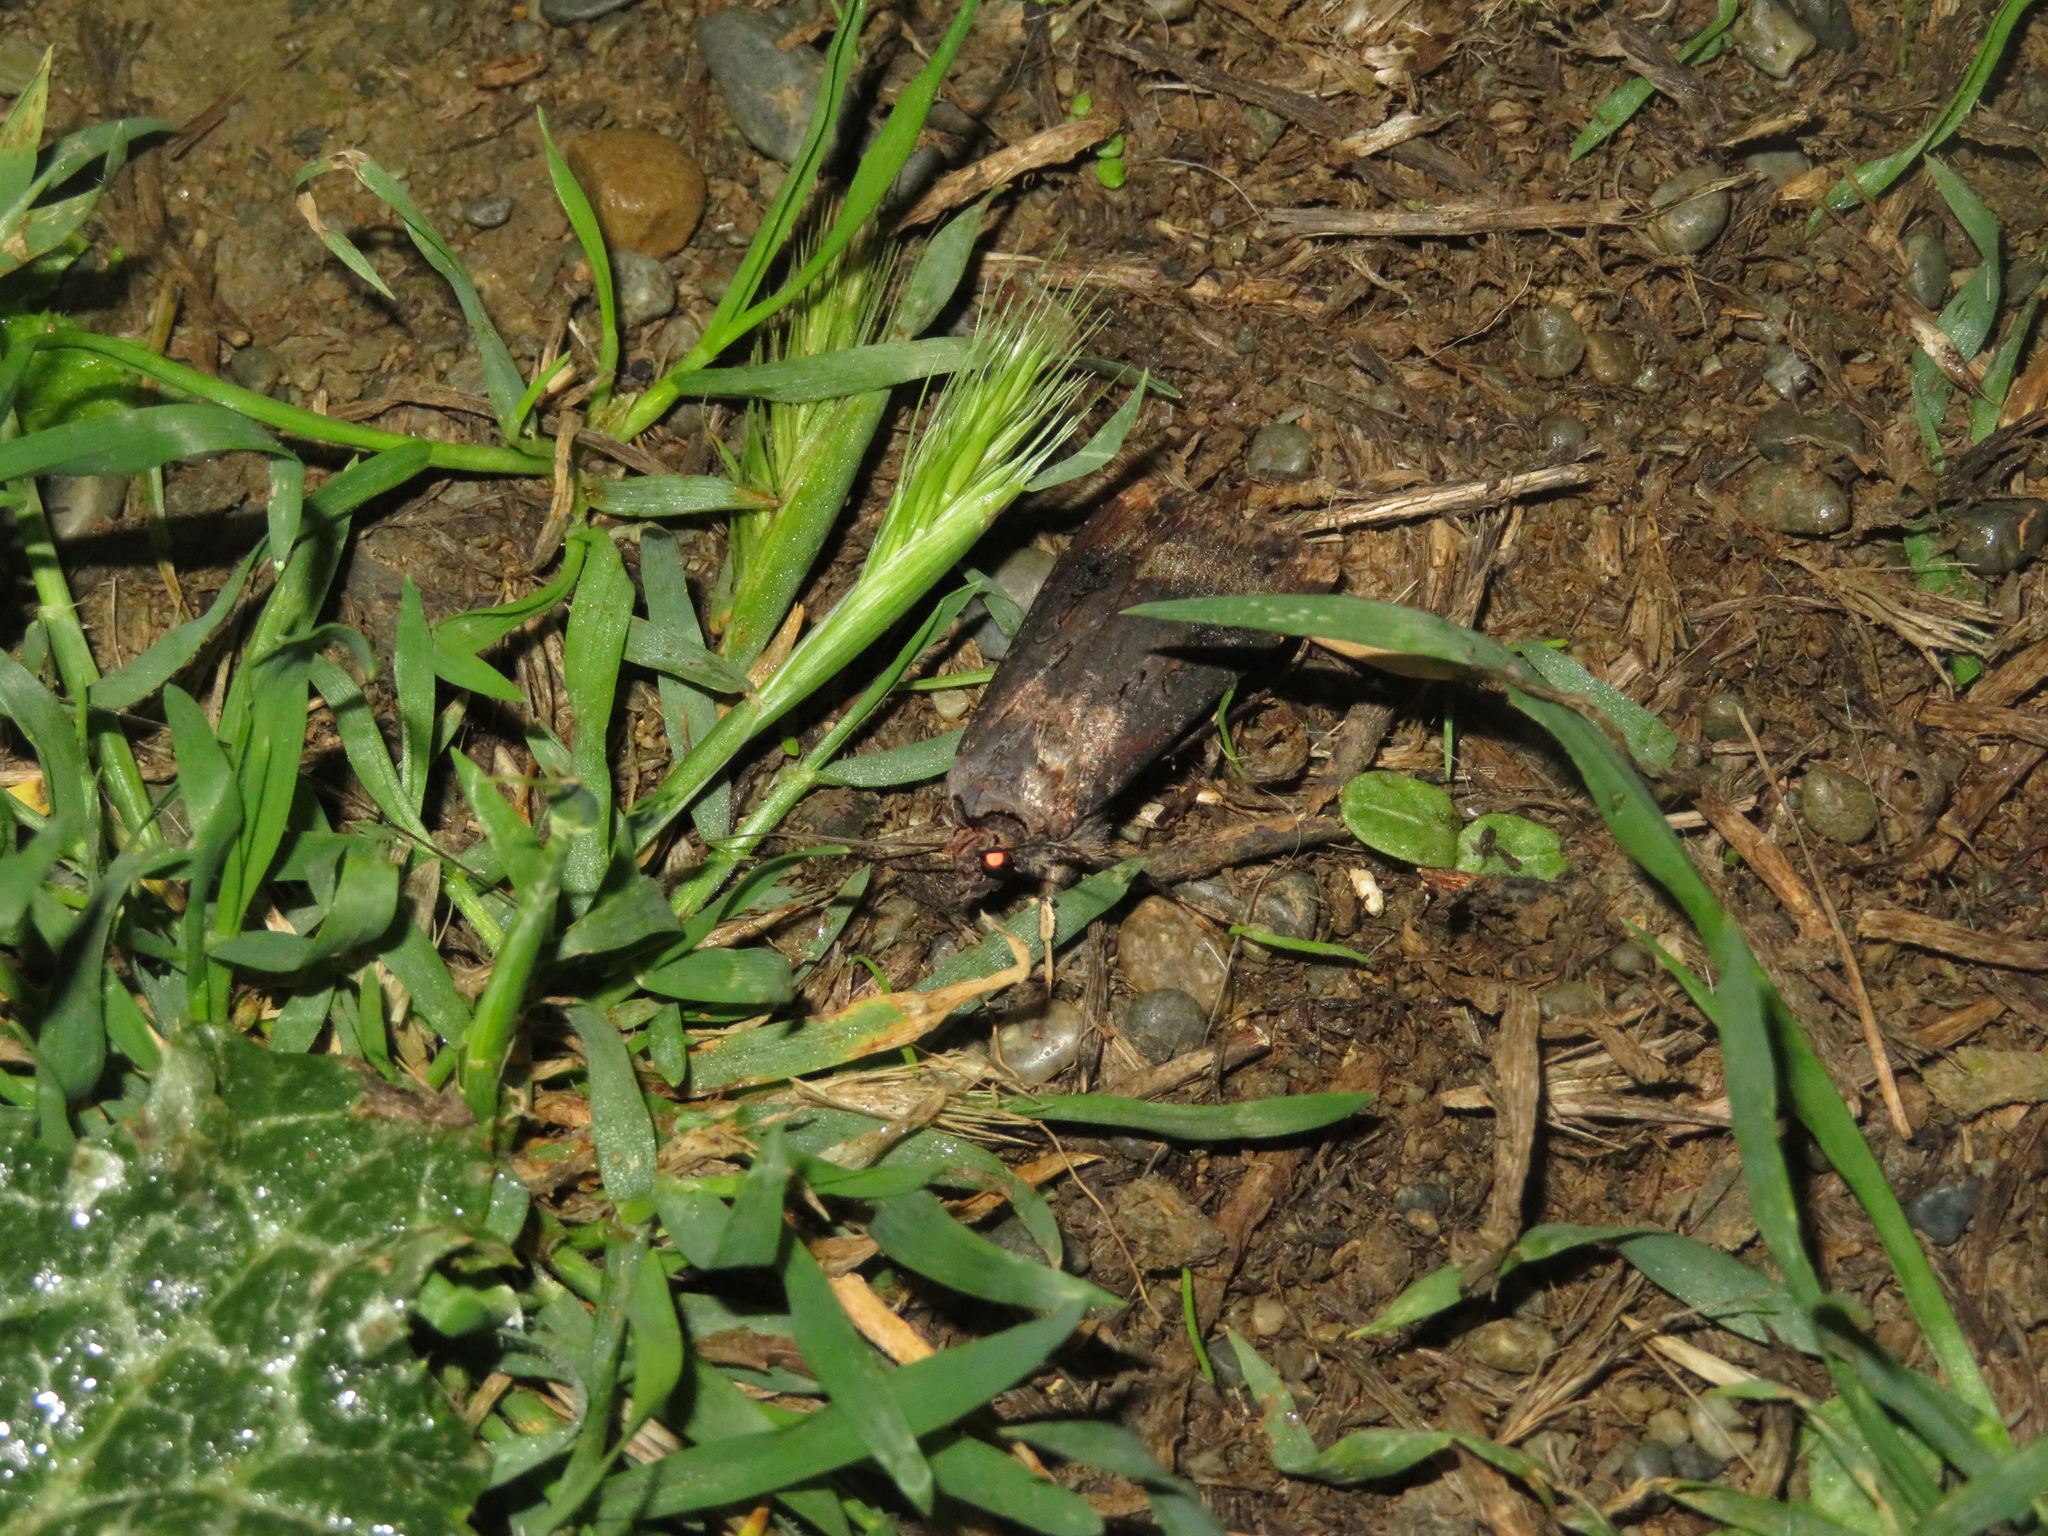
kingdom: Animalia
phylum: Arthropoda
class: Insecta
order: Lepidoptera
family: Noctuidae
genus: Agrotis
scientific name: Agrotis ipsilon
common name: Dark sword-grass
